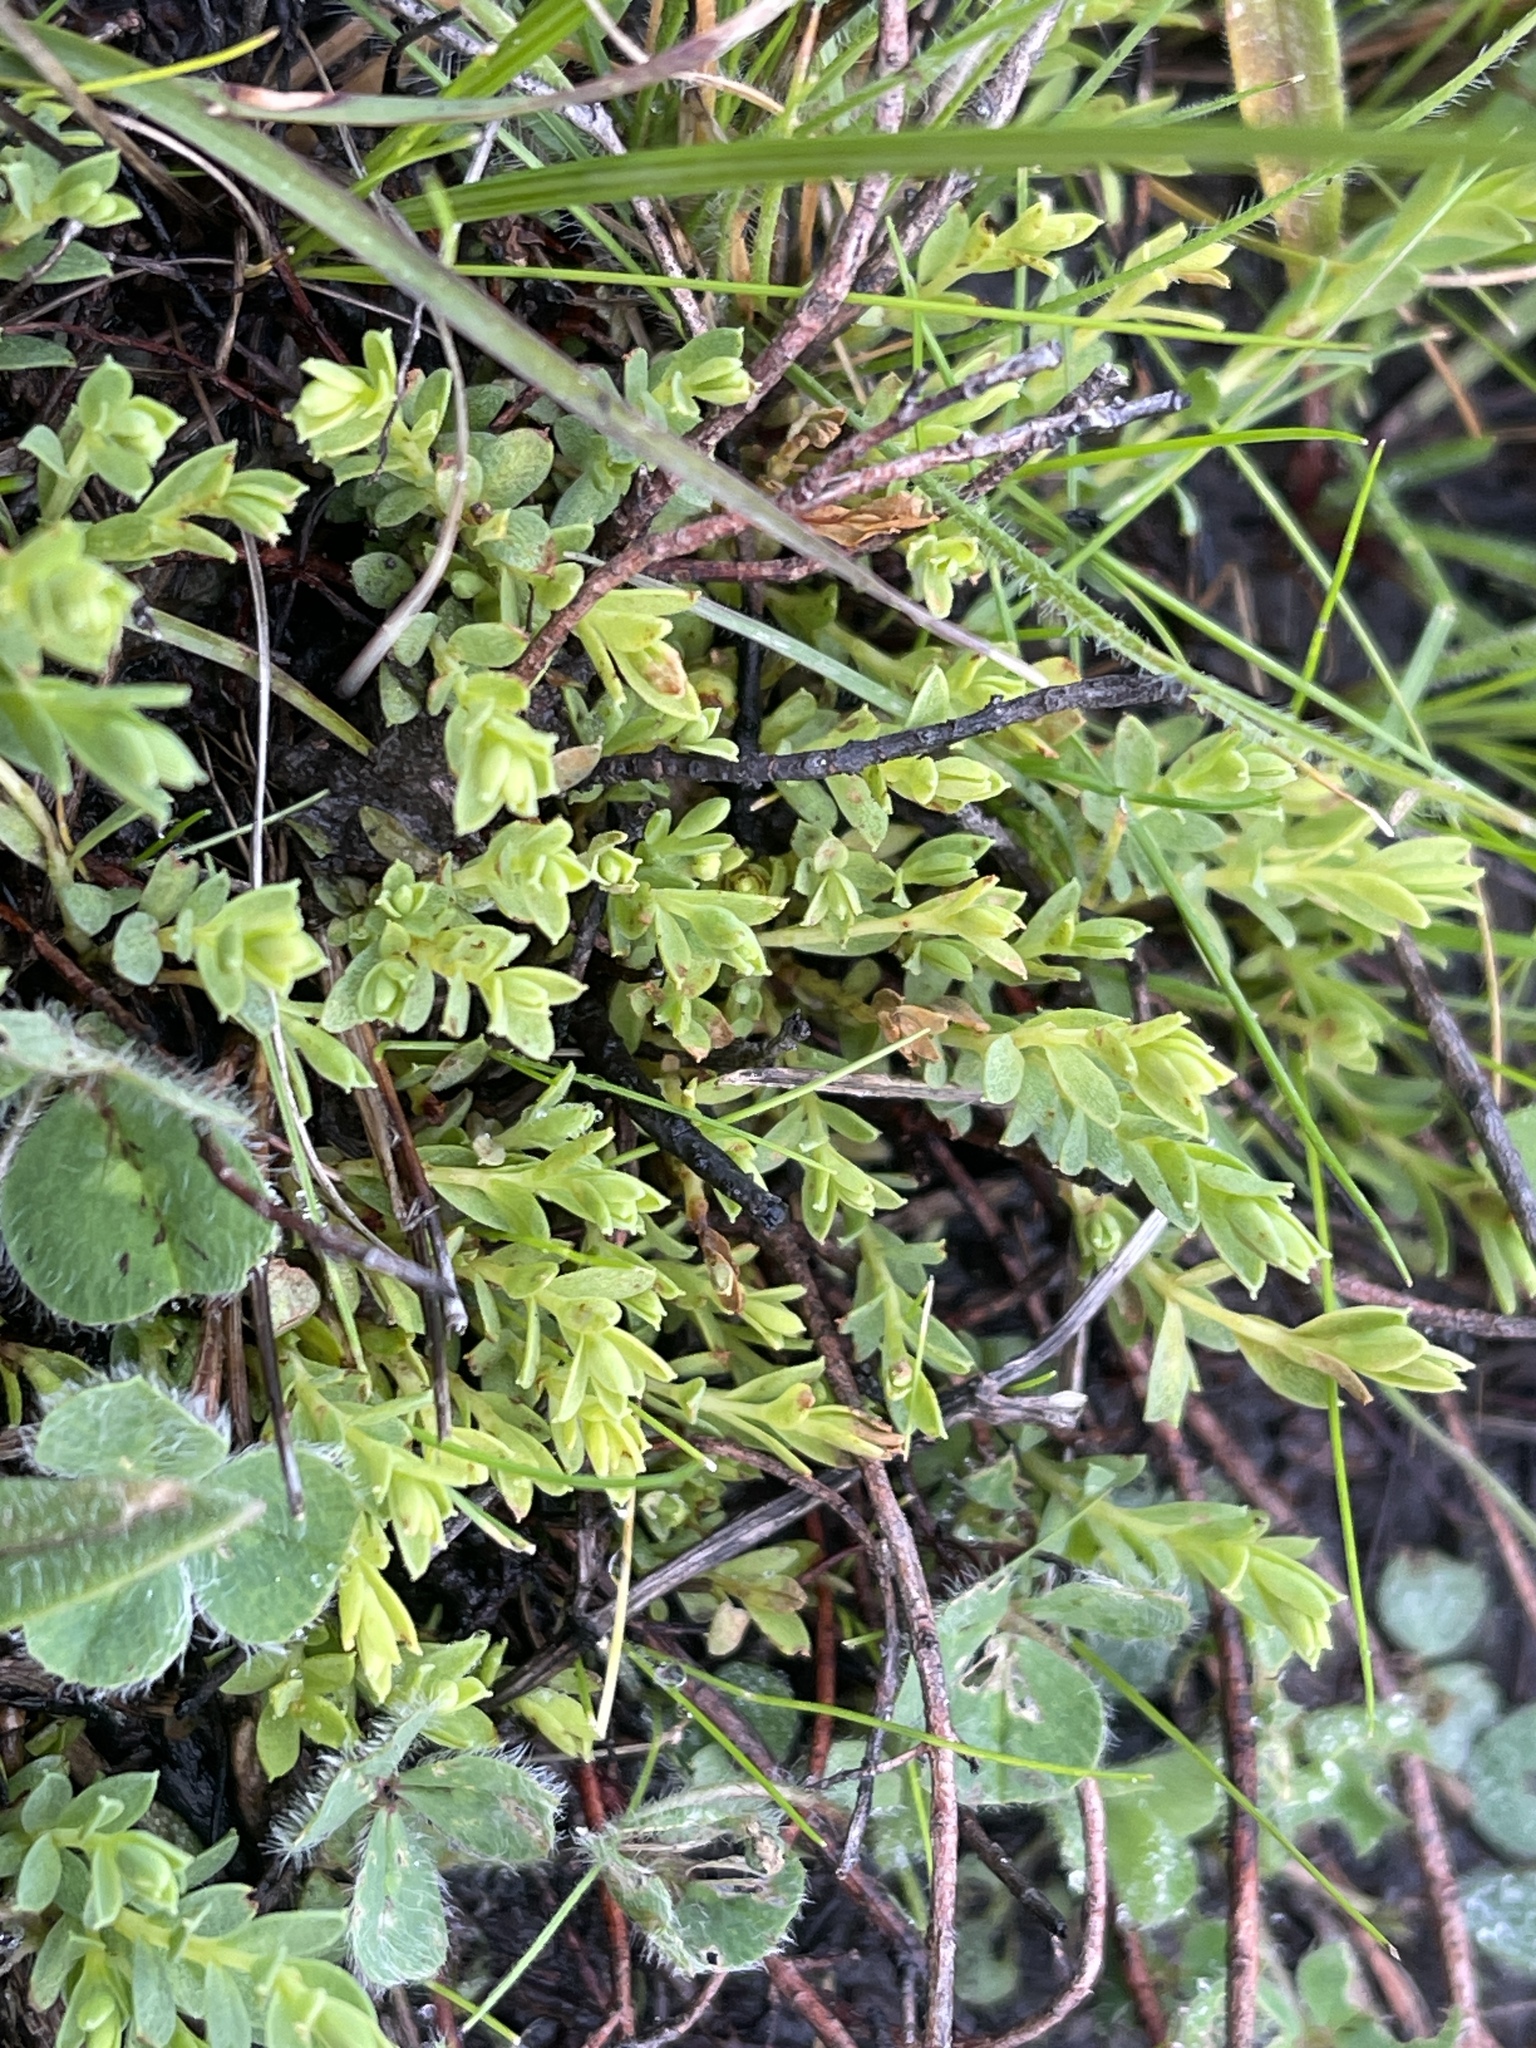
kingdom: Plantae
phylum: Tracheophyta
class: Magnoliopsida
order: Malvales
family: Thymelaeaceae
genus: Pimelea
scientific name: Pimelea spinescens
